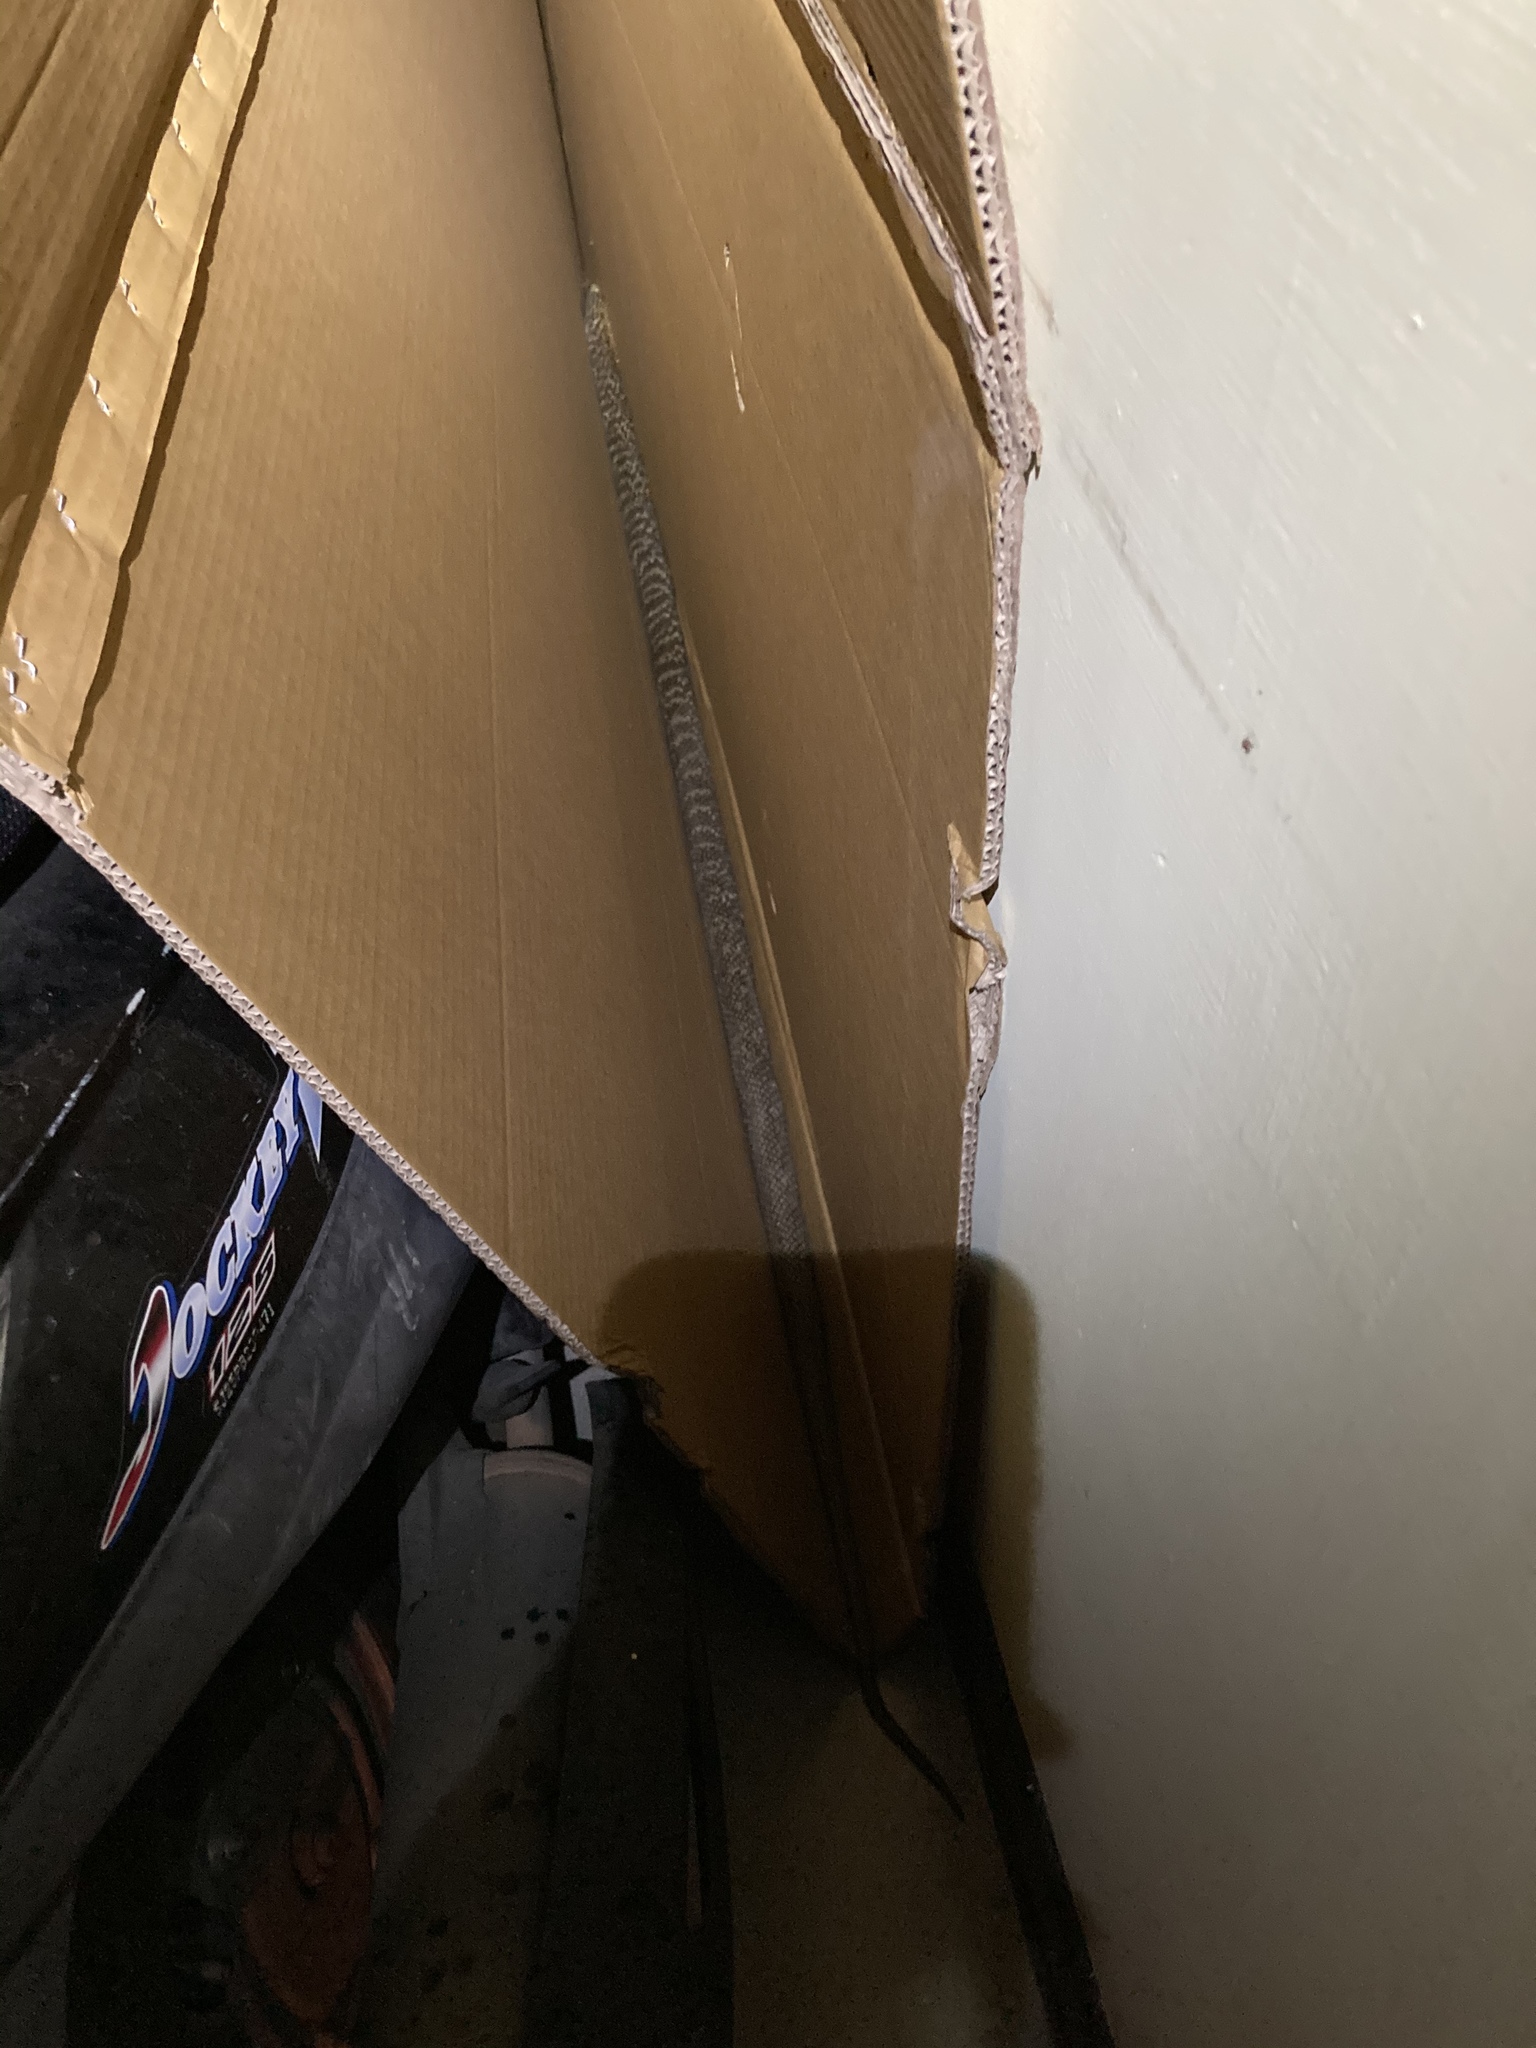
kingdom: Animalia
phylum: Chordata
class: Squamata
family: Colubridae
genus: Elaphe
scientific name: Elaphe carinata
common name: Taiwan stink snake
